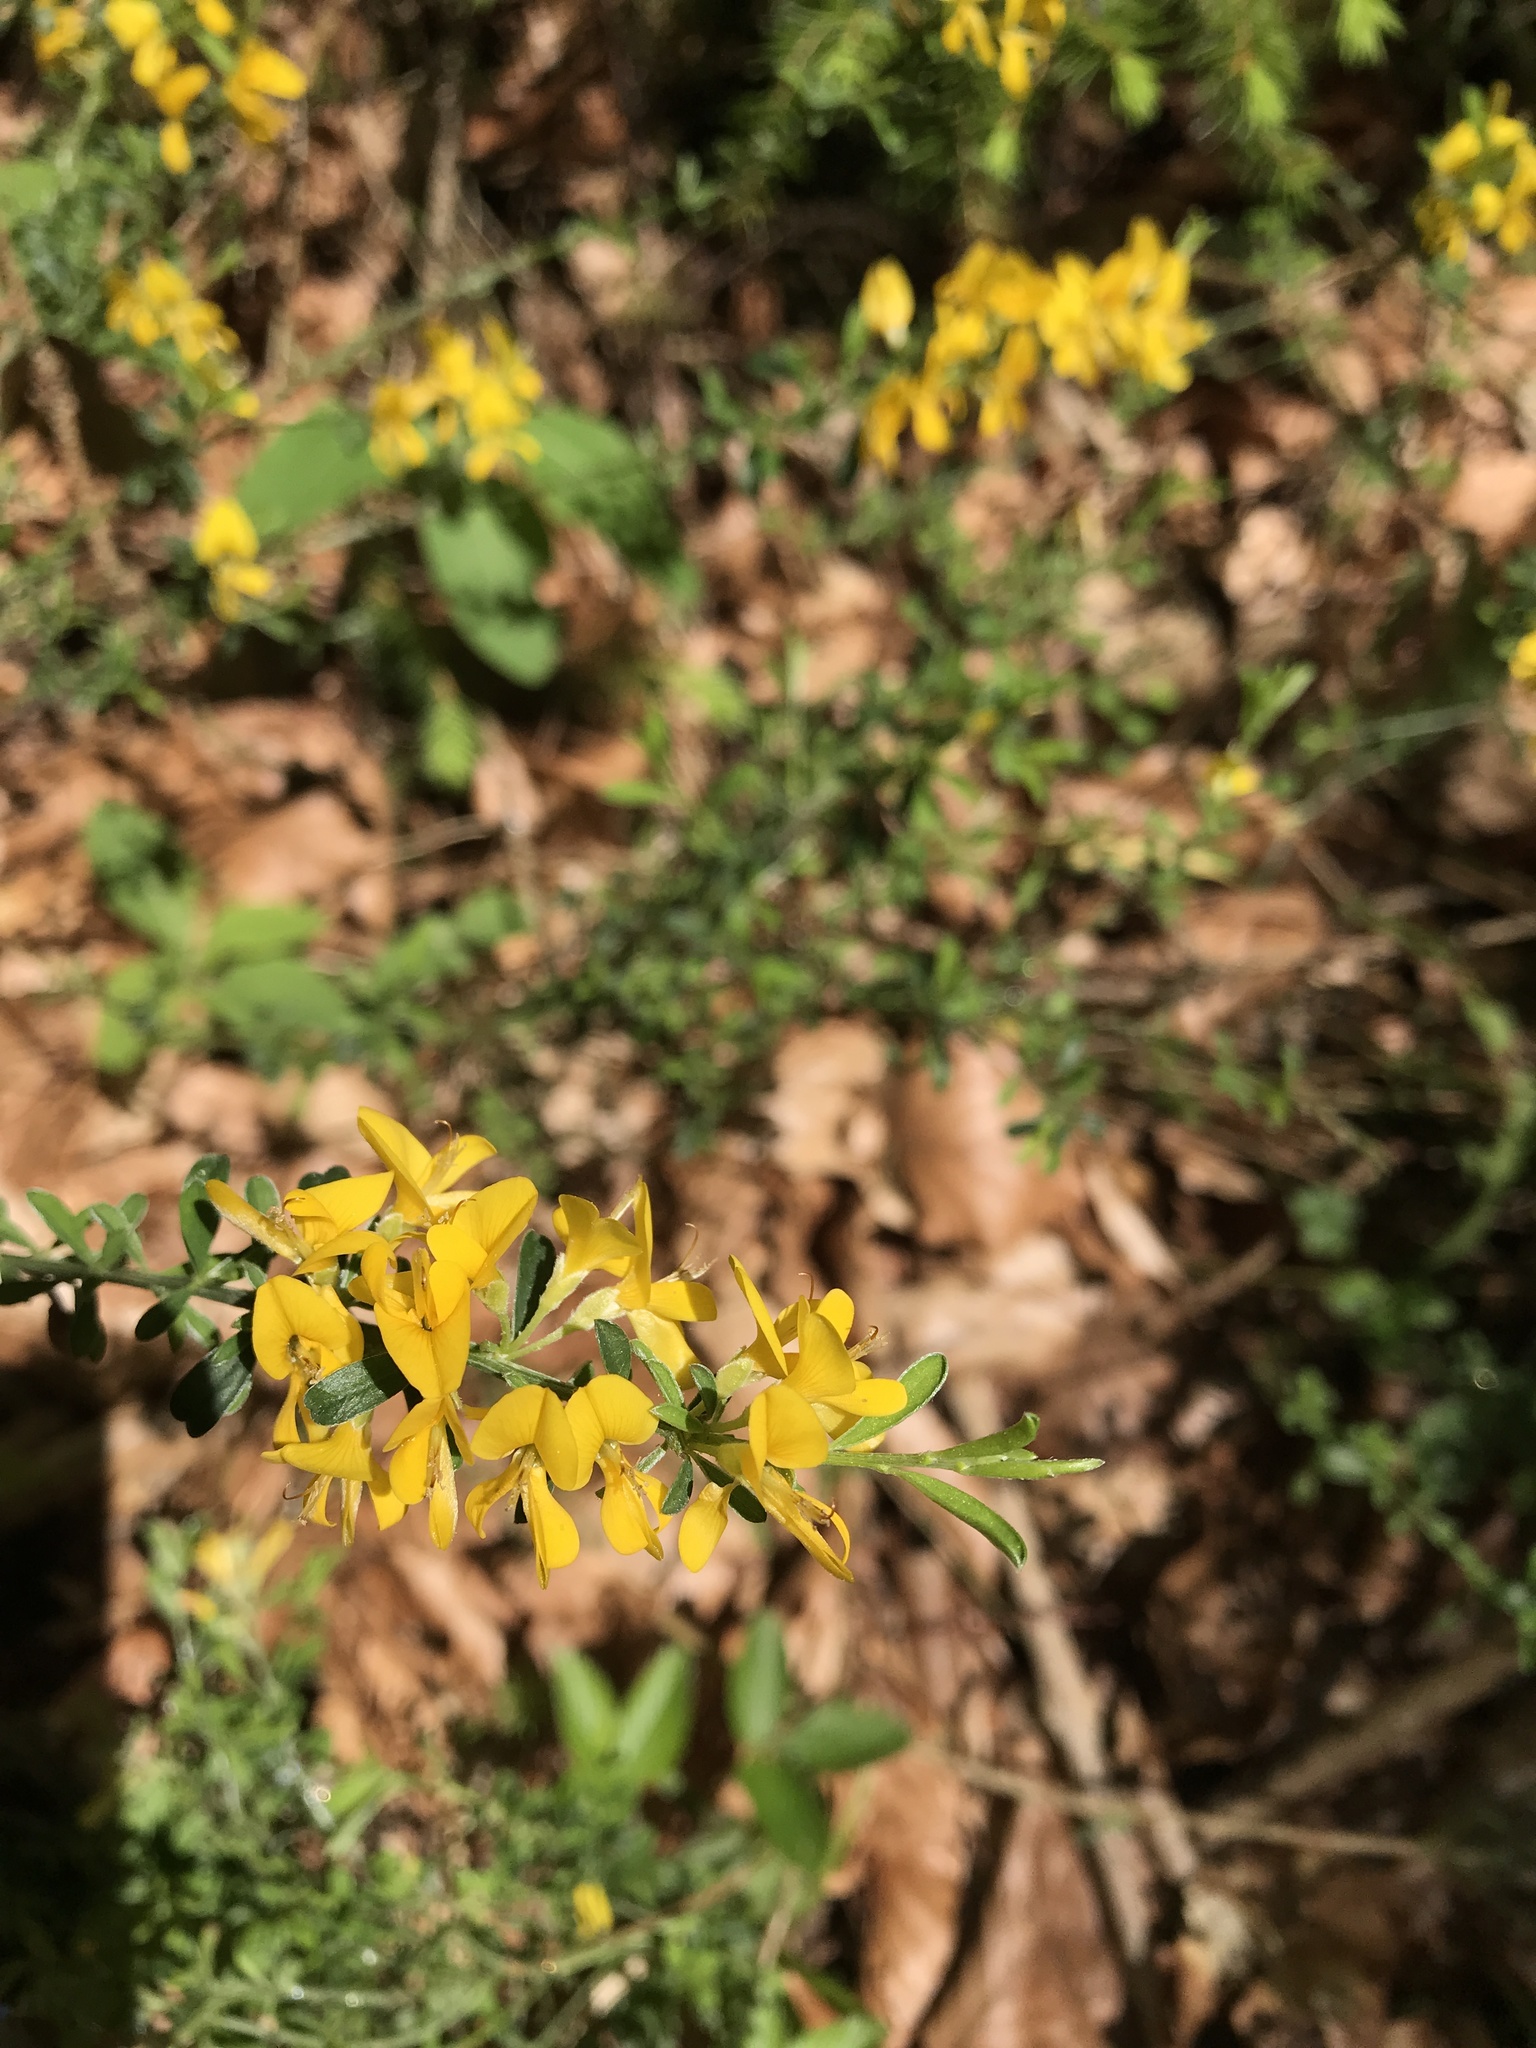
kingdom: Plantae
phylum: Tracheophyta
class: Magnoliopsida
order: Fabales
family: Fabaceae
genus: Genista
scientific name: Genista tinctoria
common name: Dyer's greenweed
